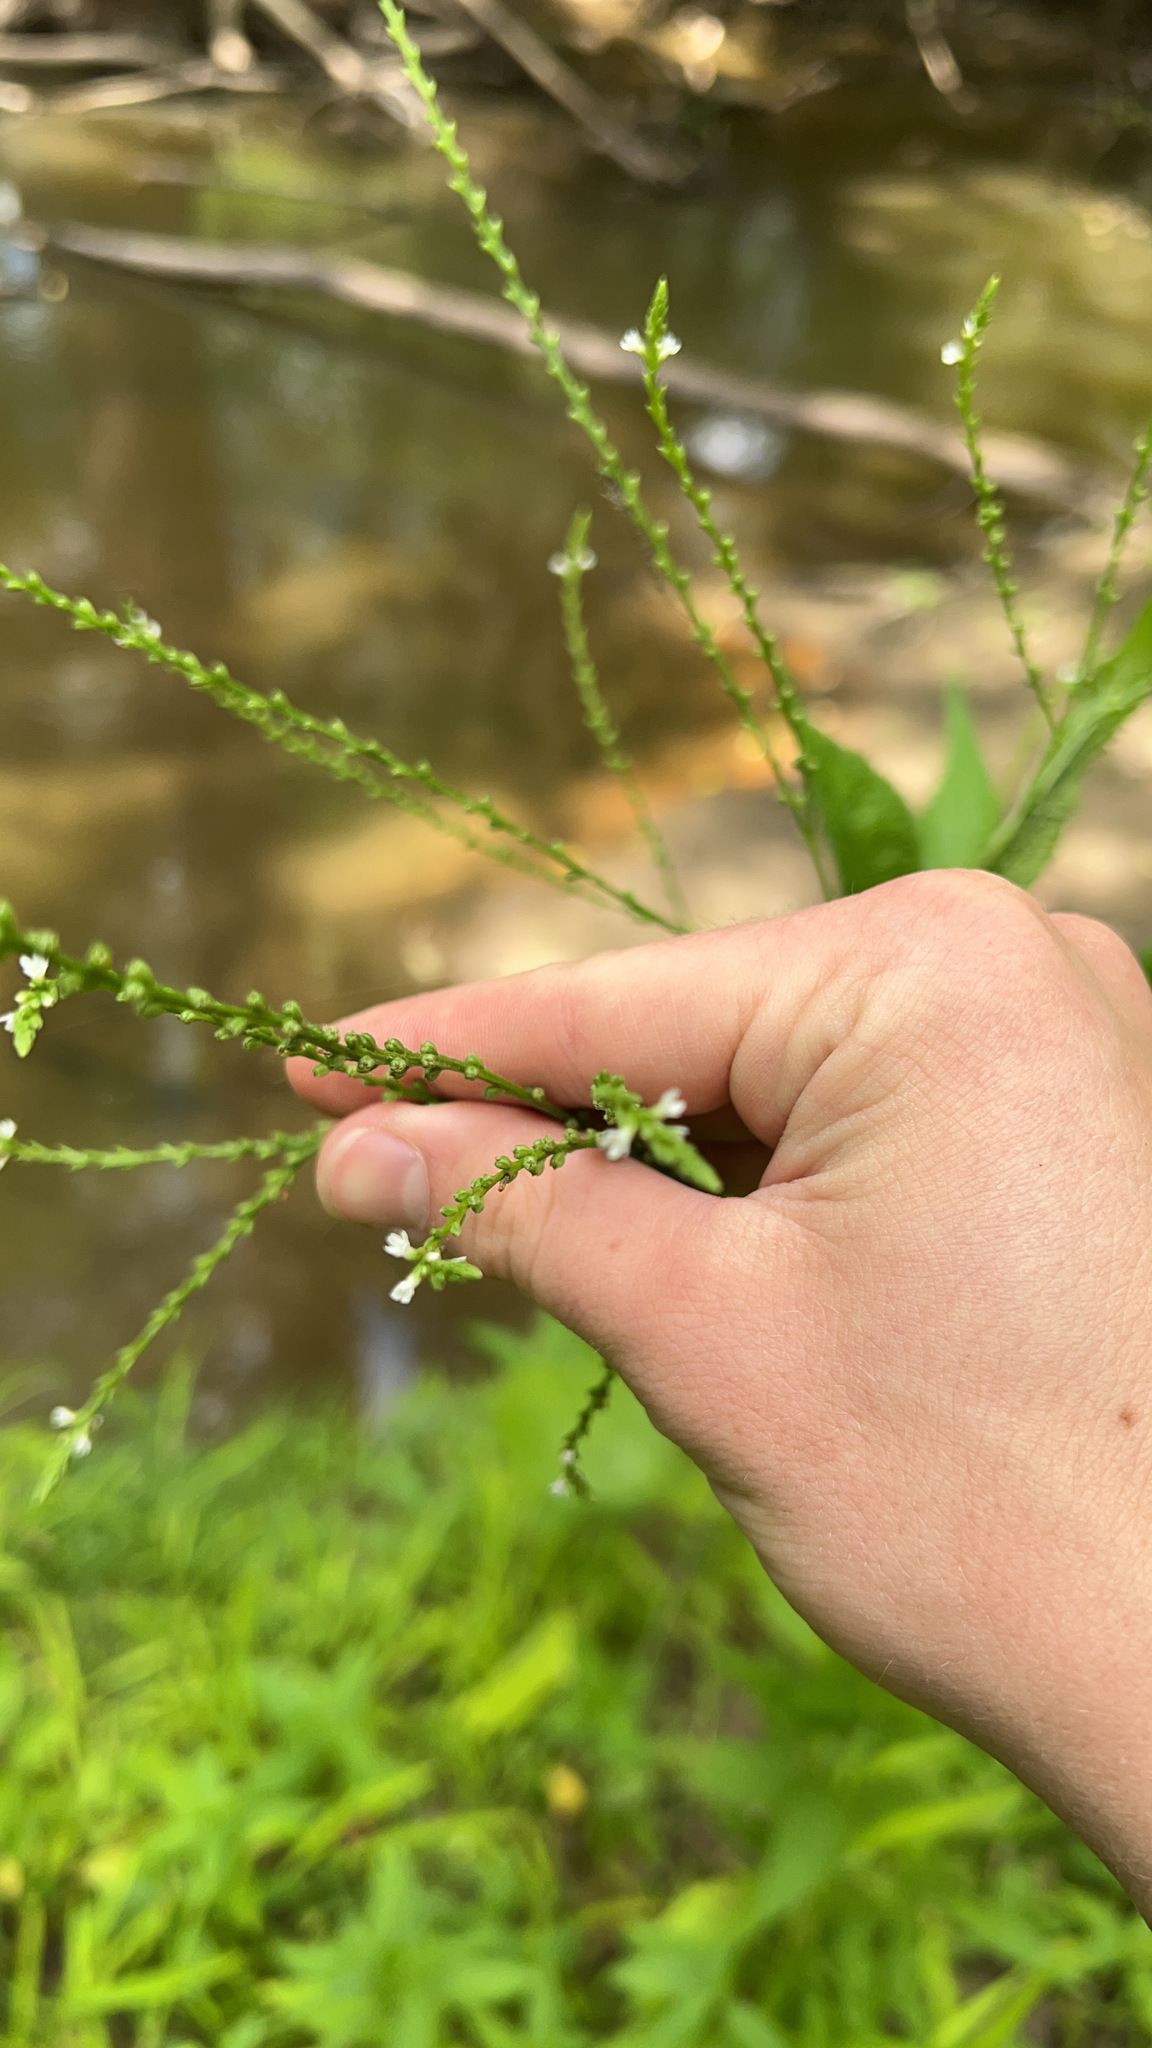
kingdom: Plantae
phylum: Tracheophyta
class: Magnoliopsida
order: Lamiales
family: Verbenaceae
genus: Verbena
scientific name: Verbena urticifolia
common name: Nettle-leaved vervain
